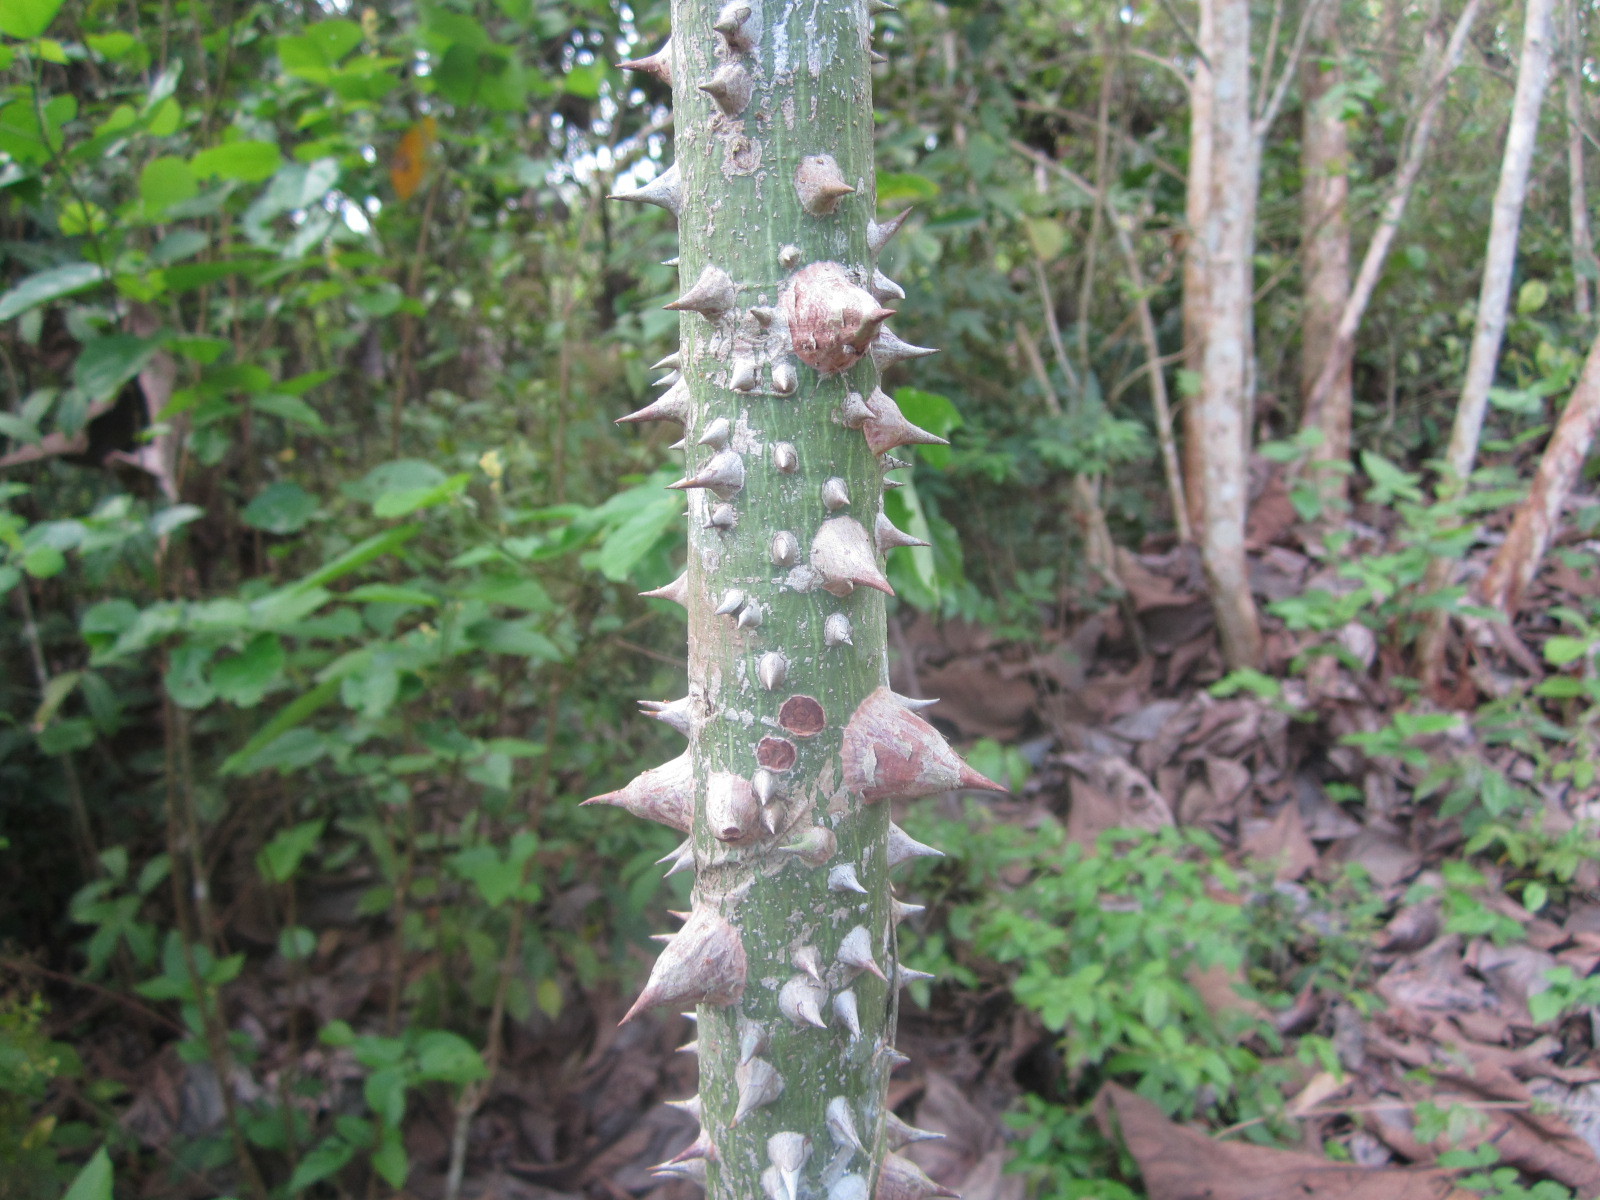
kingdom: Plantae
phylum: Tracheophyta
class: Magnoliopsida
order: Malvales
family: Malvaceae
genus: Ceiba
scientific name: Ceiba pentandra
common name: Kapok
